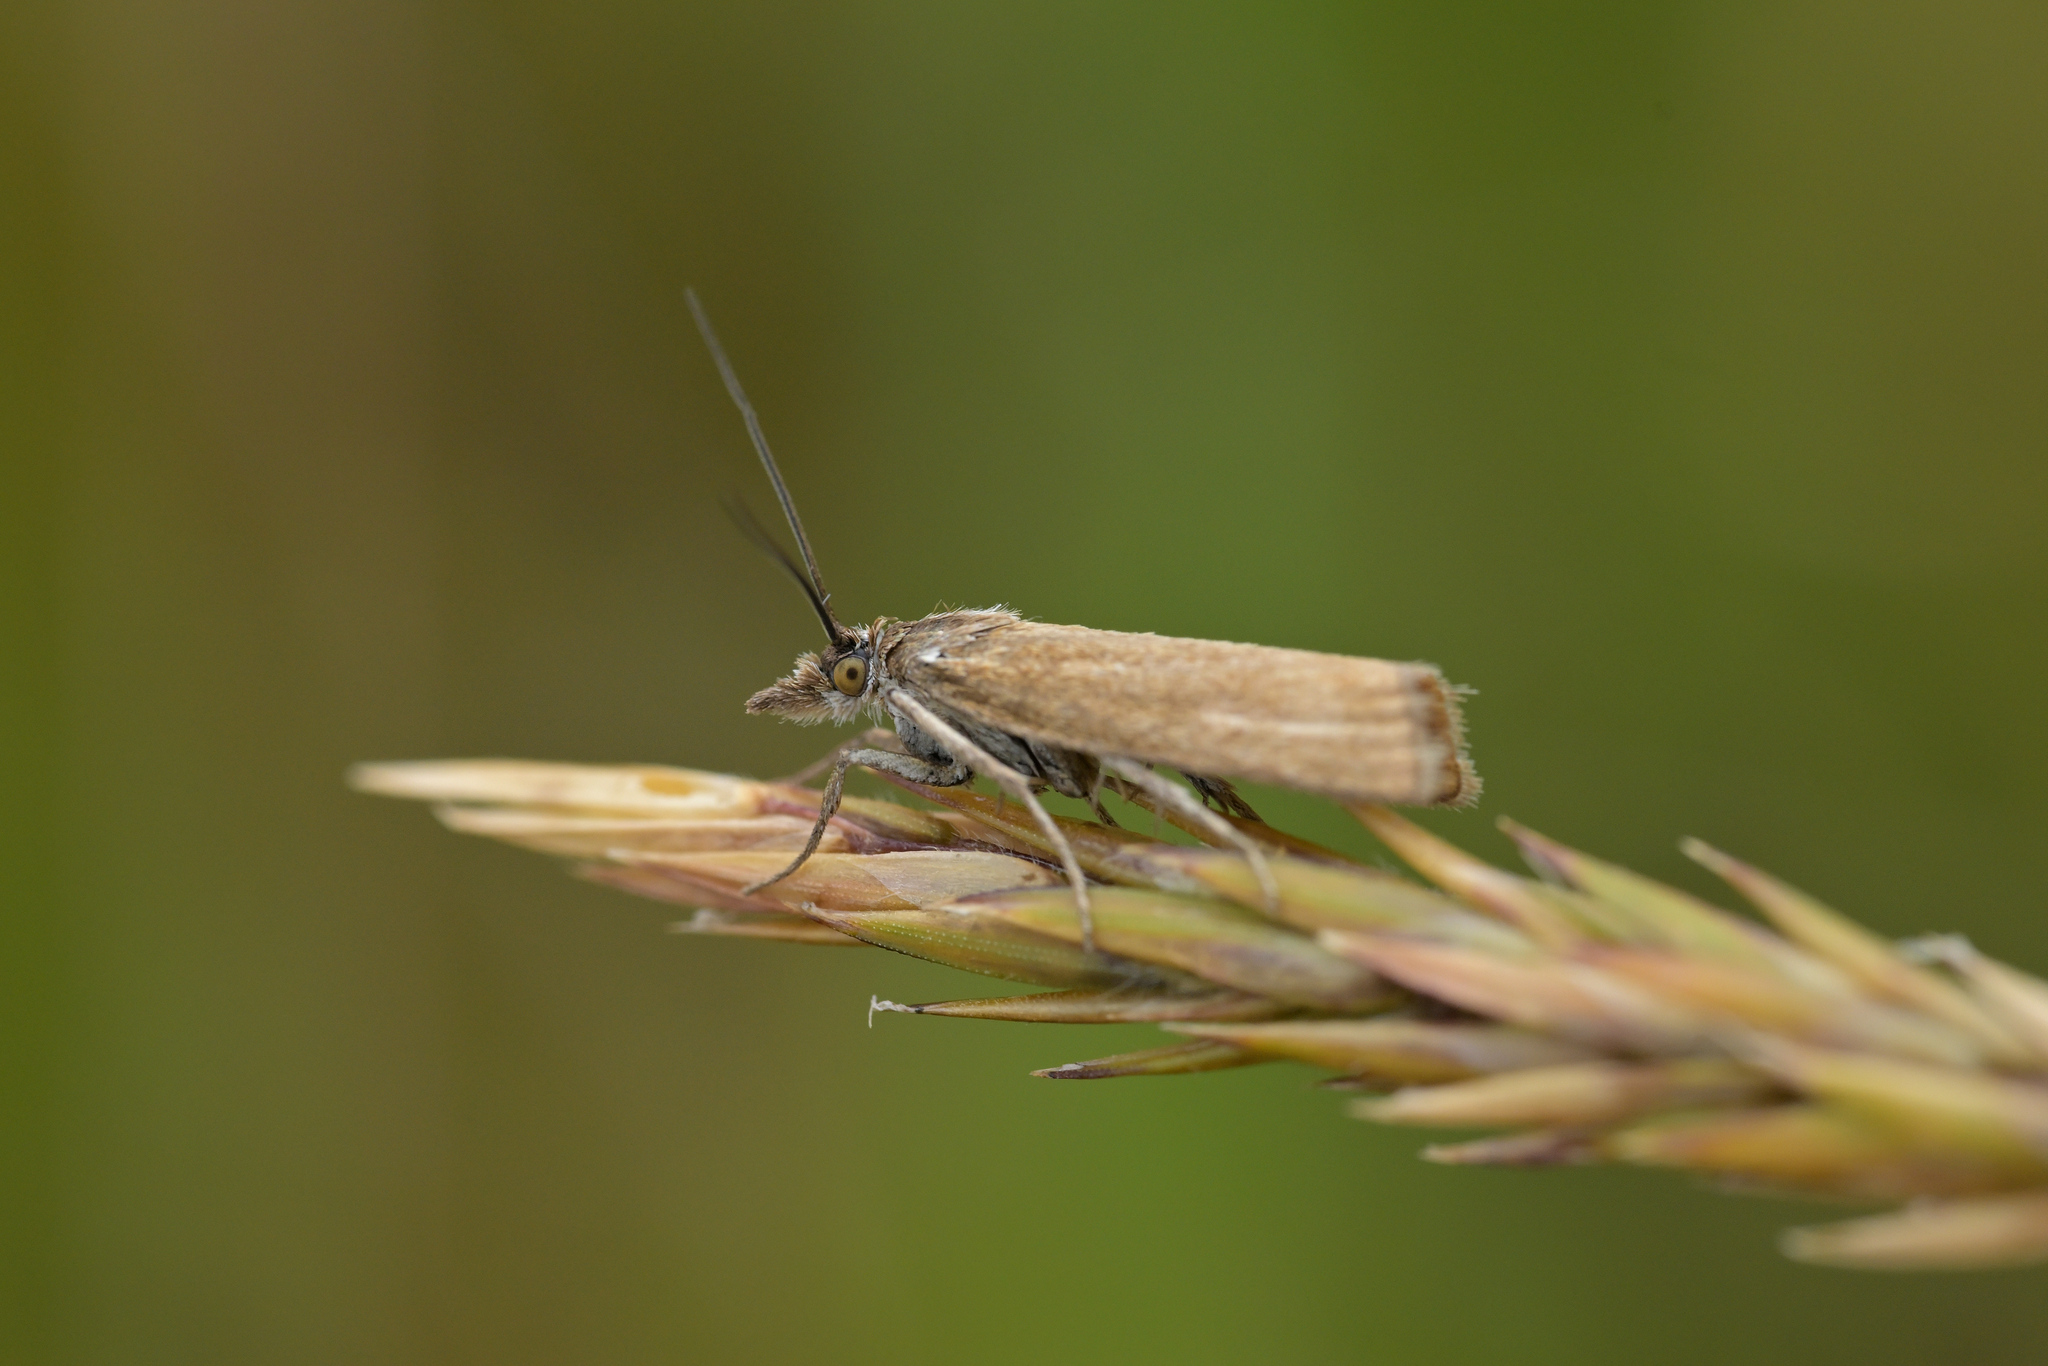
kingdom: Animalia
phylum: Arthropoda
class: Insecta
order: Lepidoptera
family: Crambidae
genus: Orocrambus
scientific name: Orocrambus heliotes
